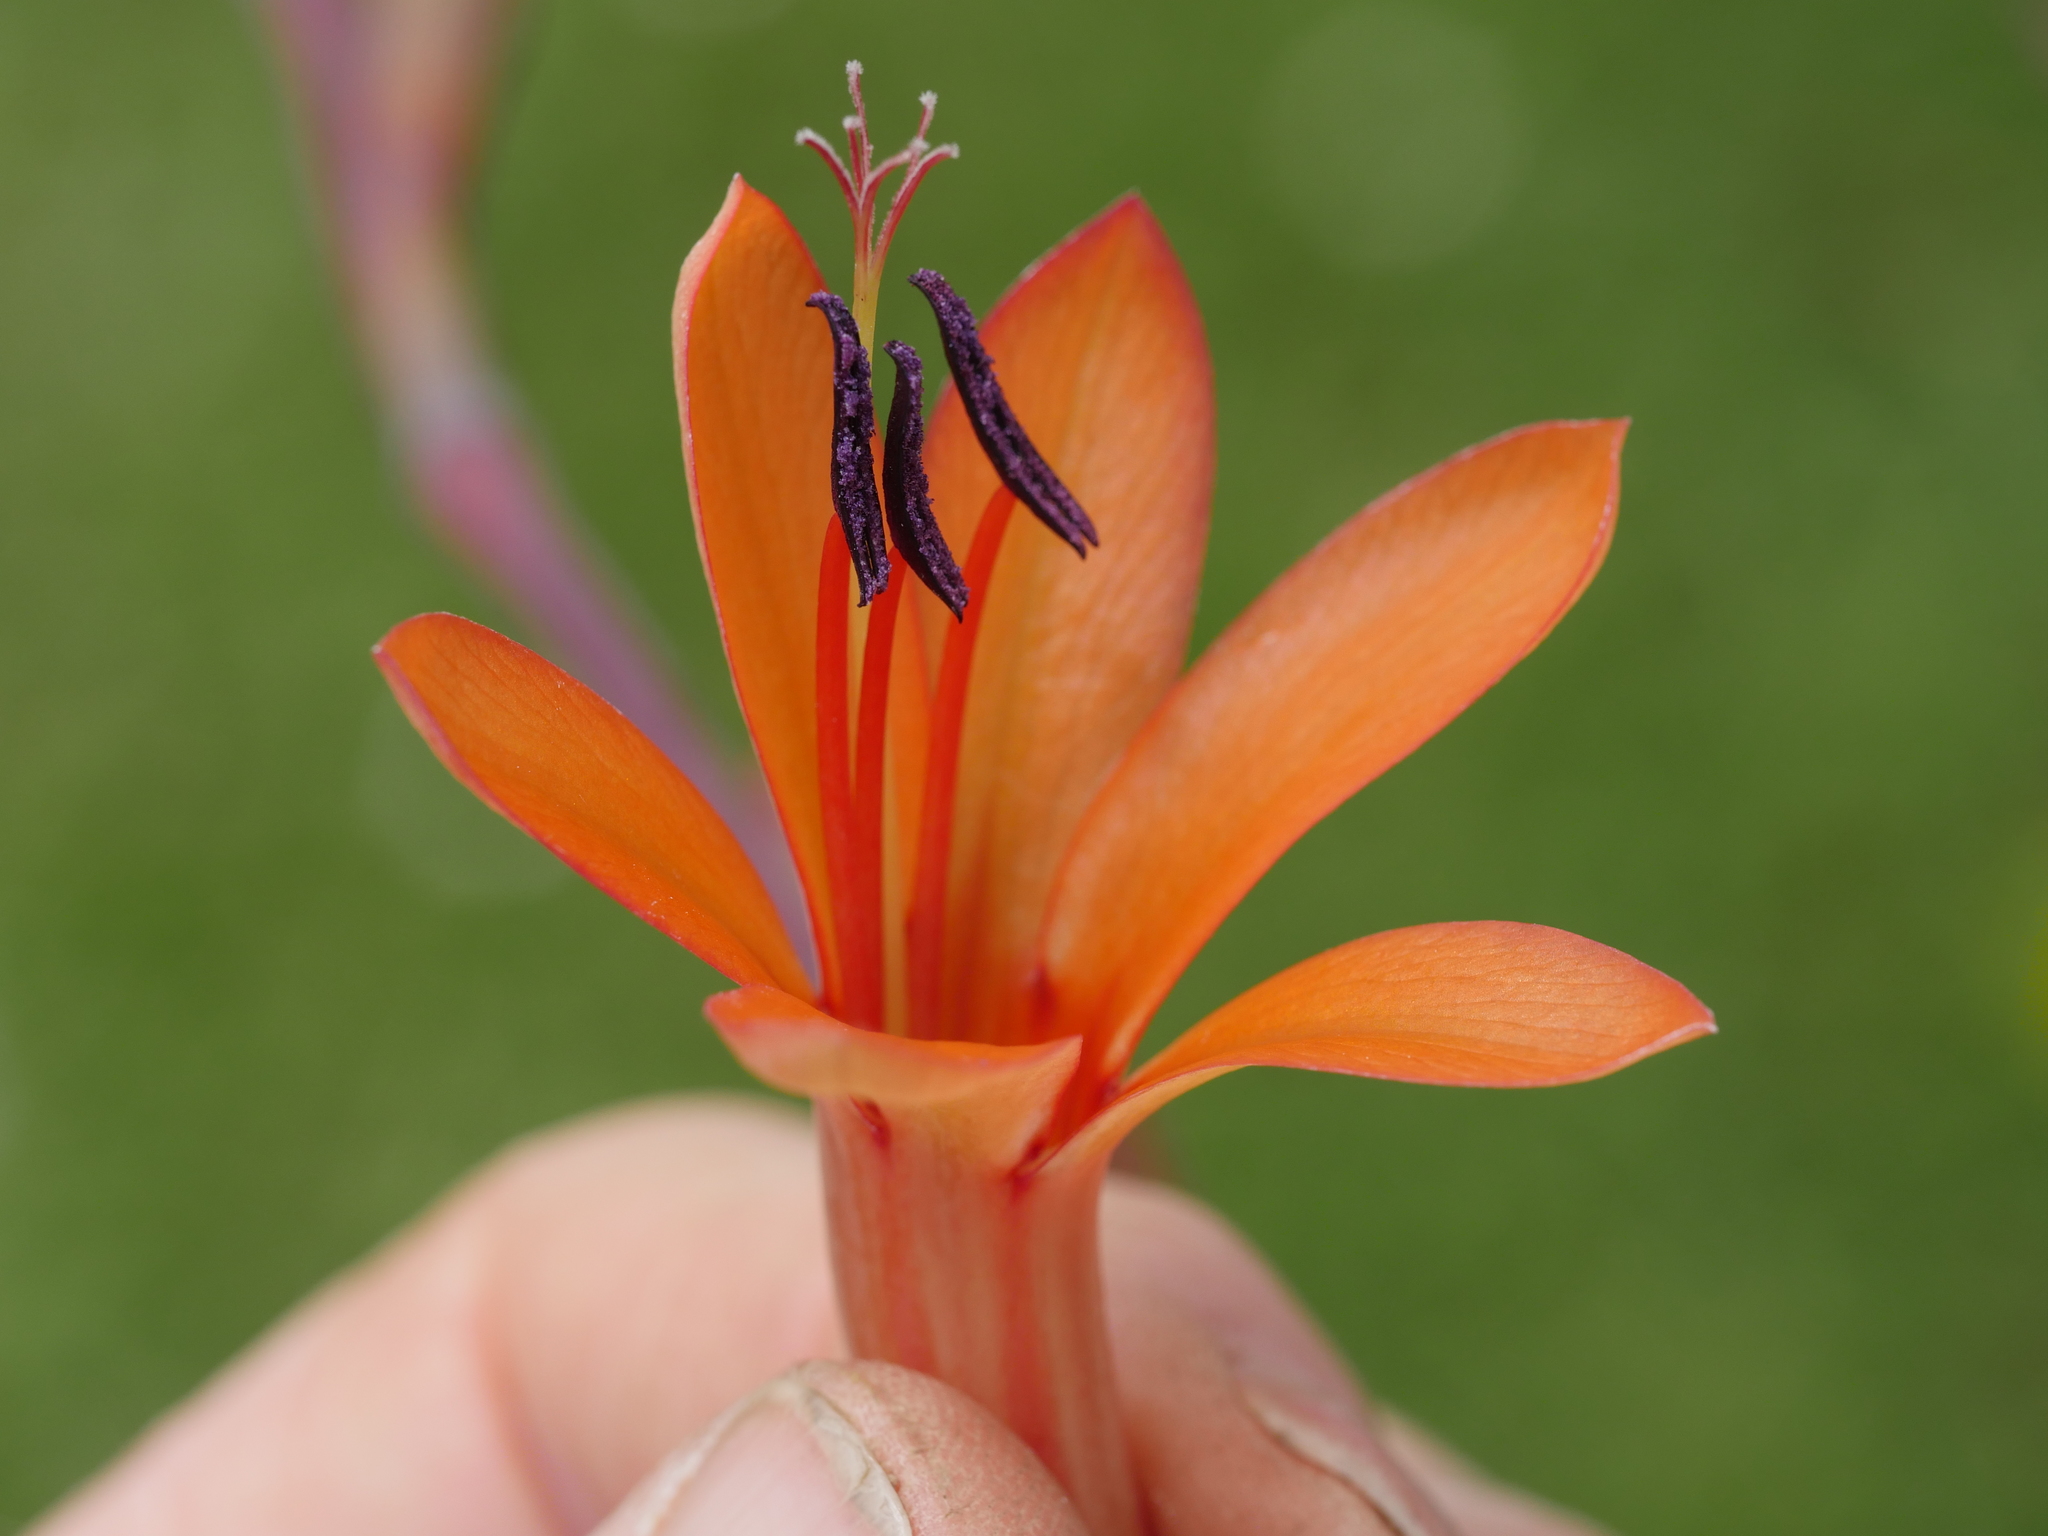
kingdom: Plantae
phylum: Tracheophyta
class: Liliopsida
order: Asparagales
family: Iridaceae
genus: Watsonia
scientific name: Watsonia meriana
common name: Bulbil bugle-lily
